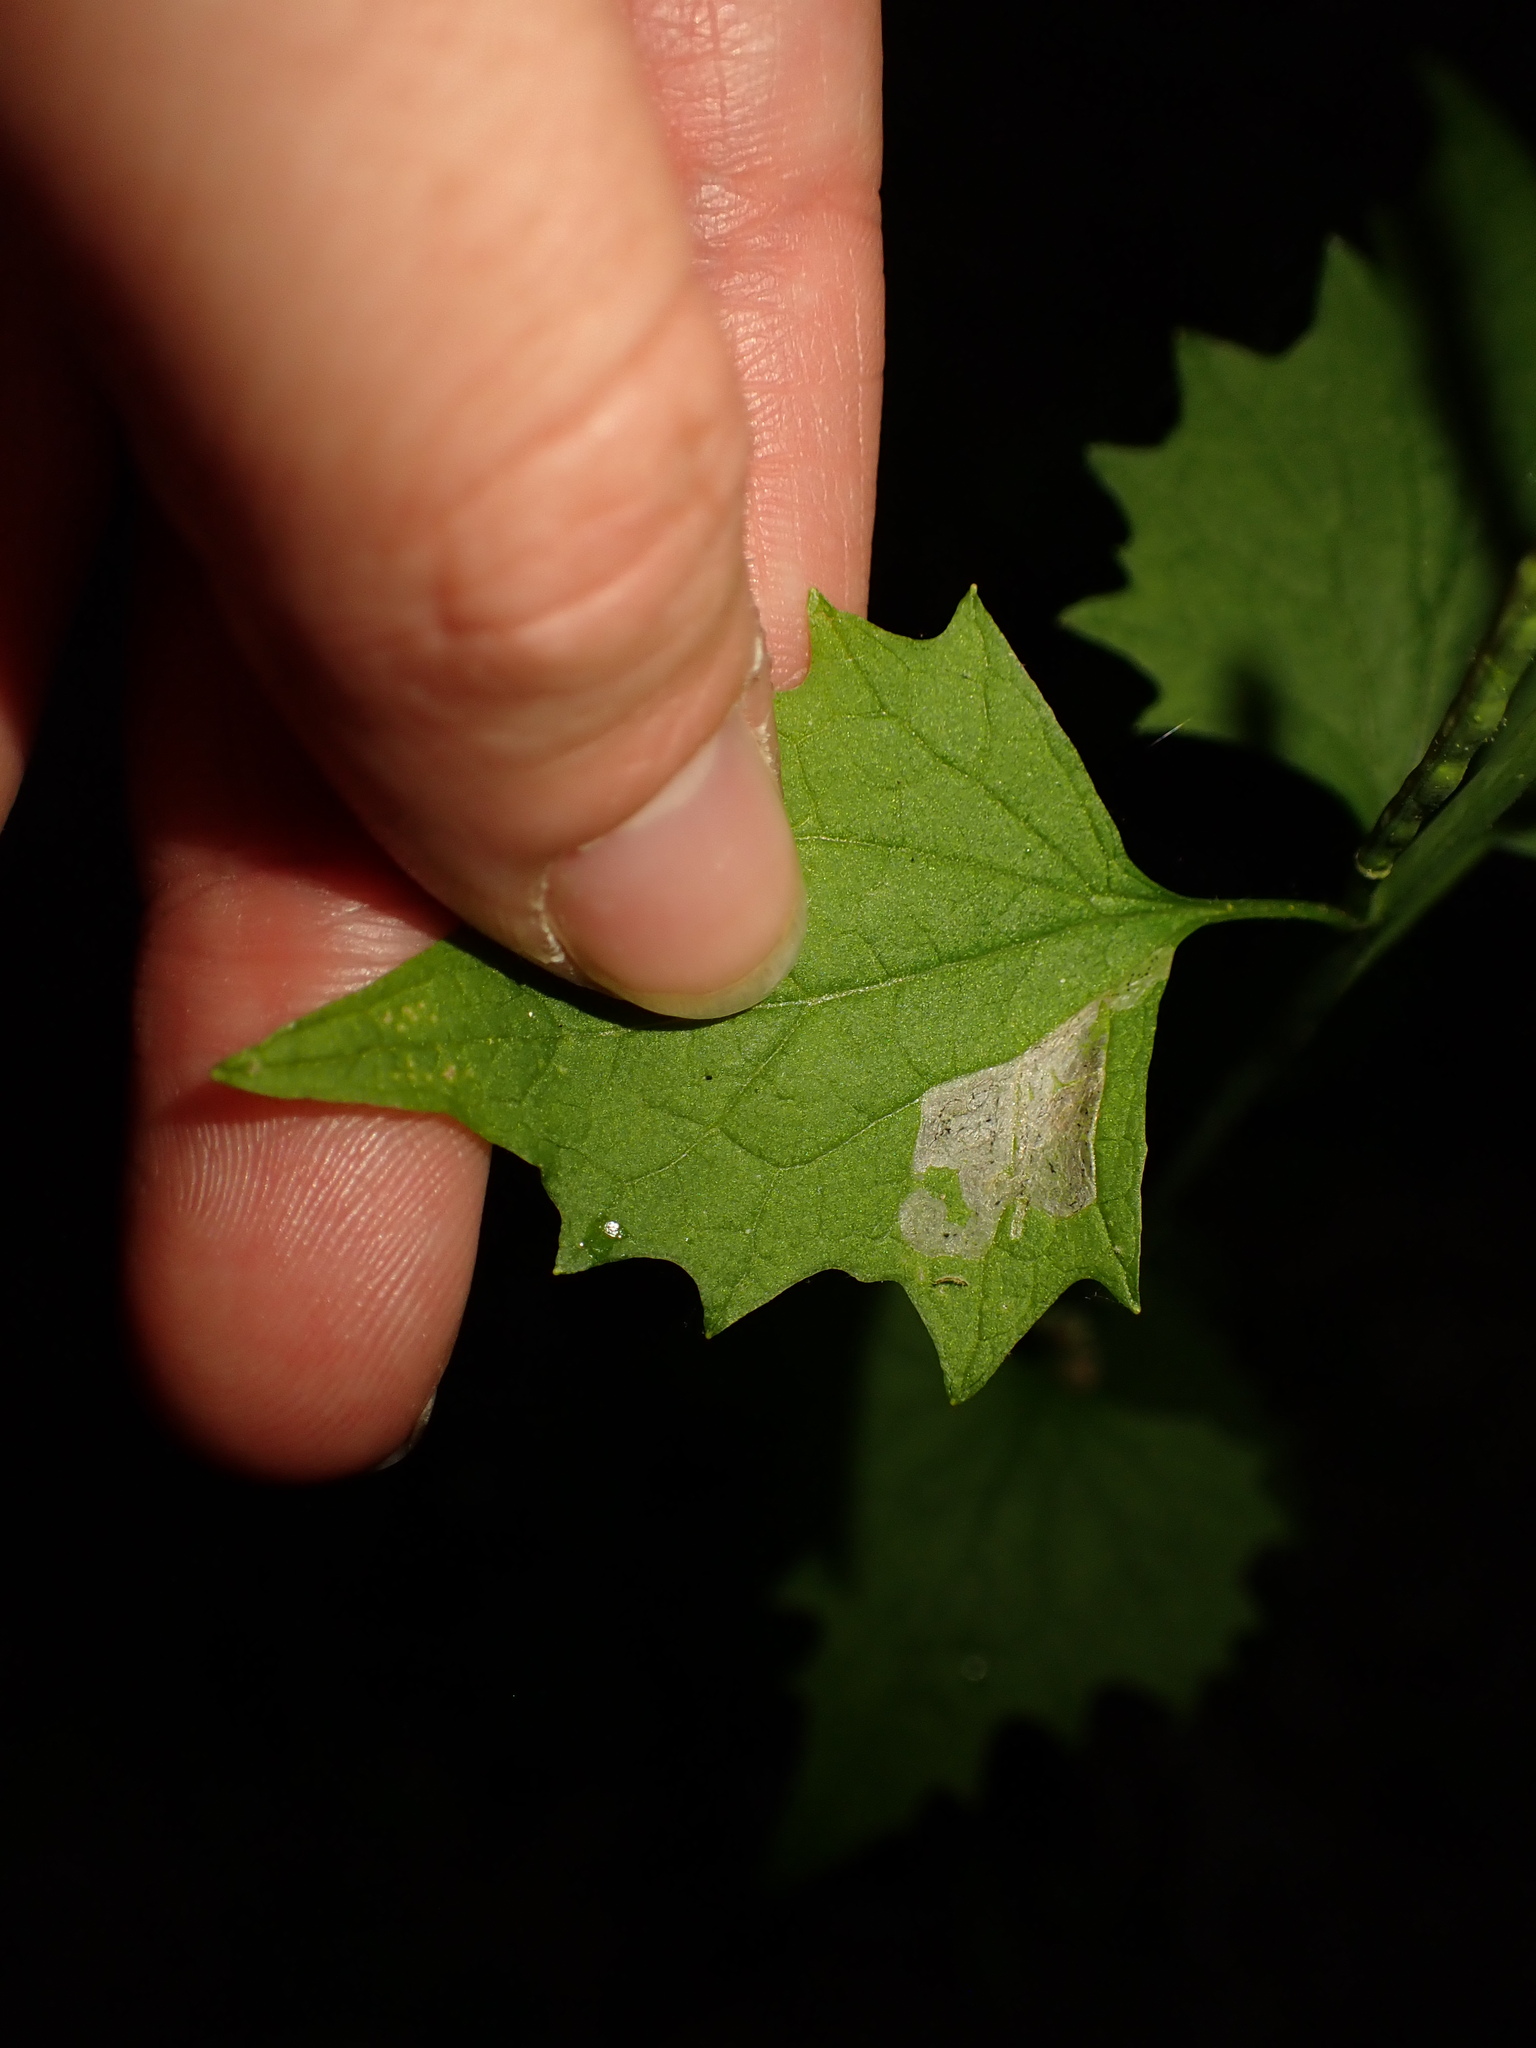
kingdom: Animalia
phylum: Arthropoda
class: Insecta
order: Diptera
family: Agromyzidae
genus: Liriomyza
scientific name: Liriomyza brassicae
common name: Serpentine leaf miner
